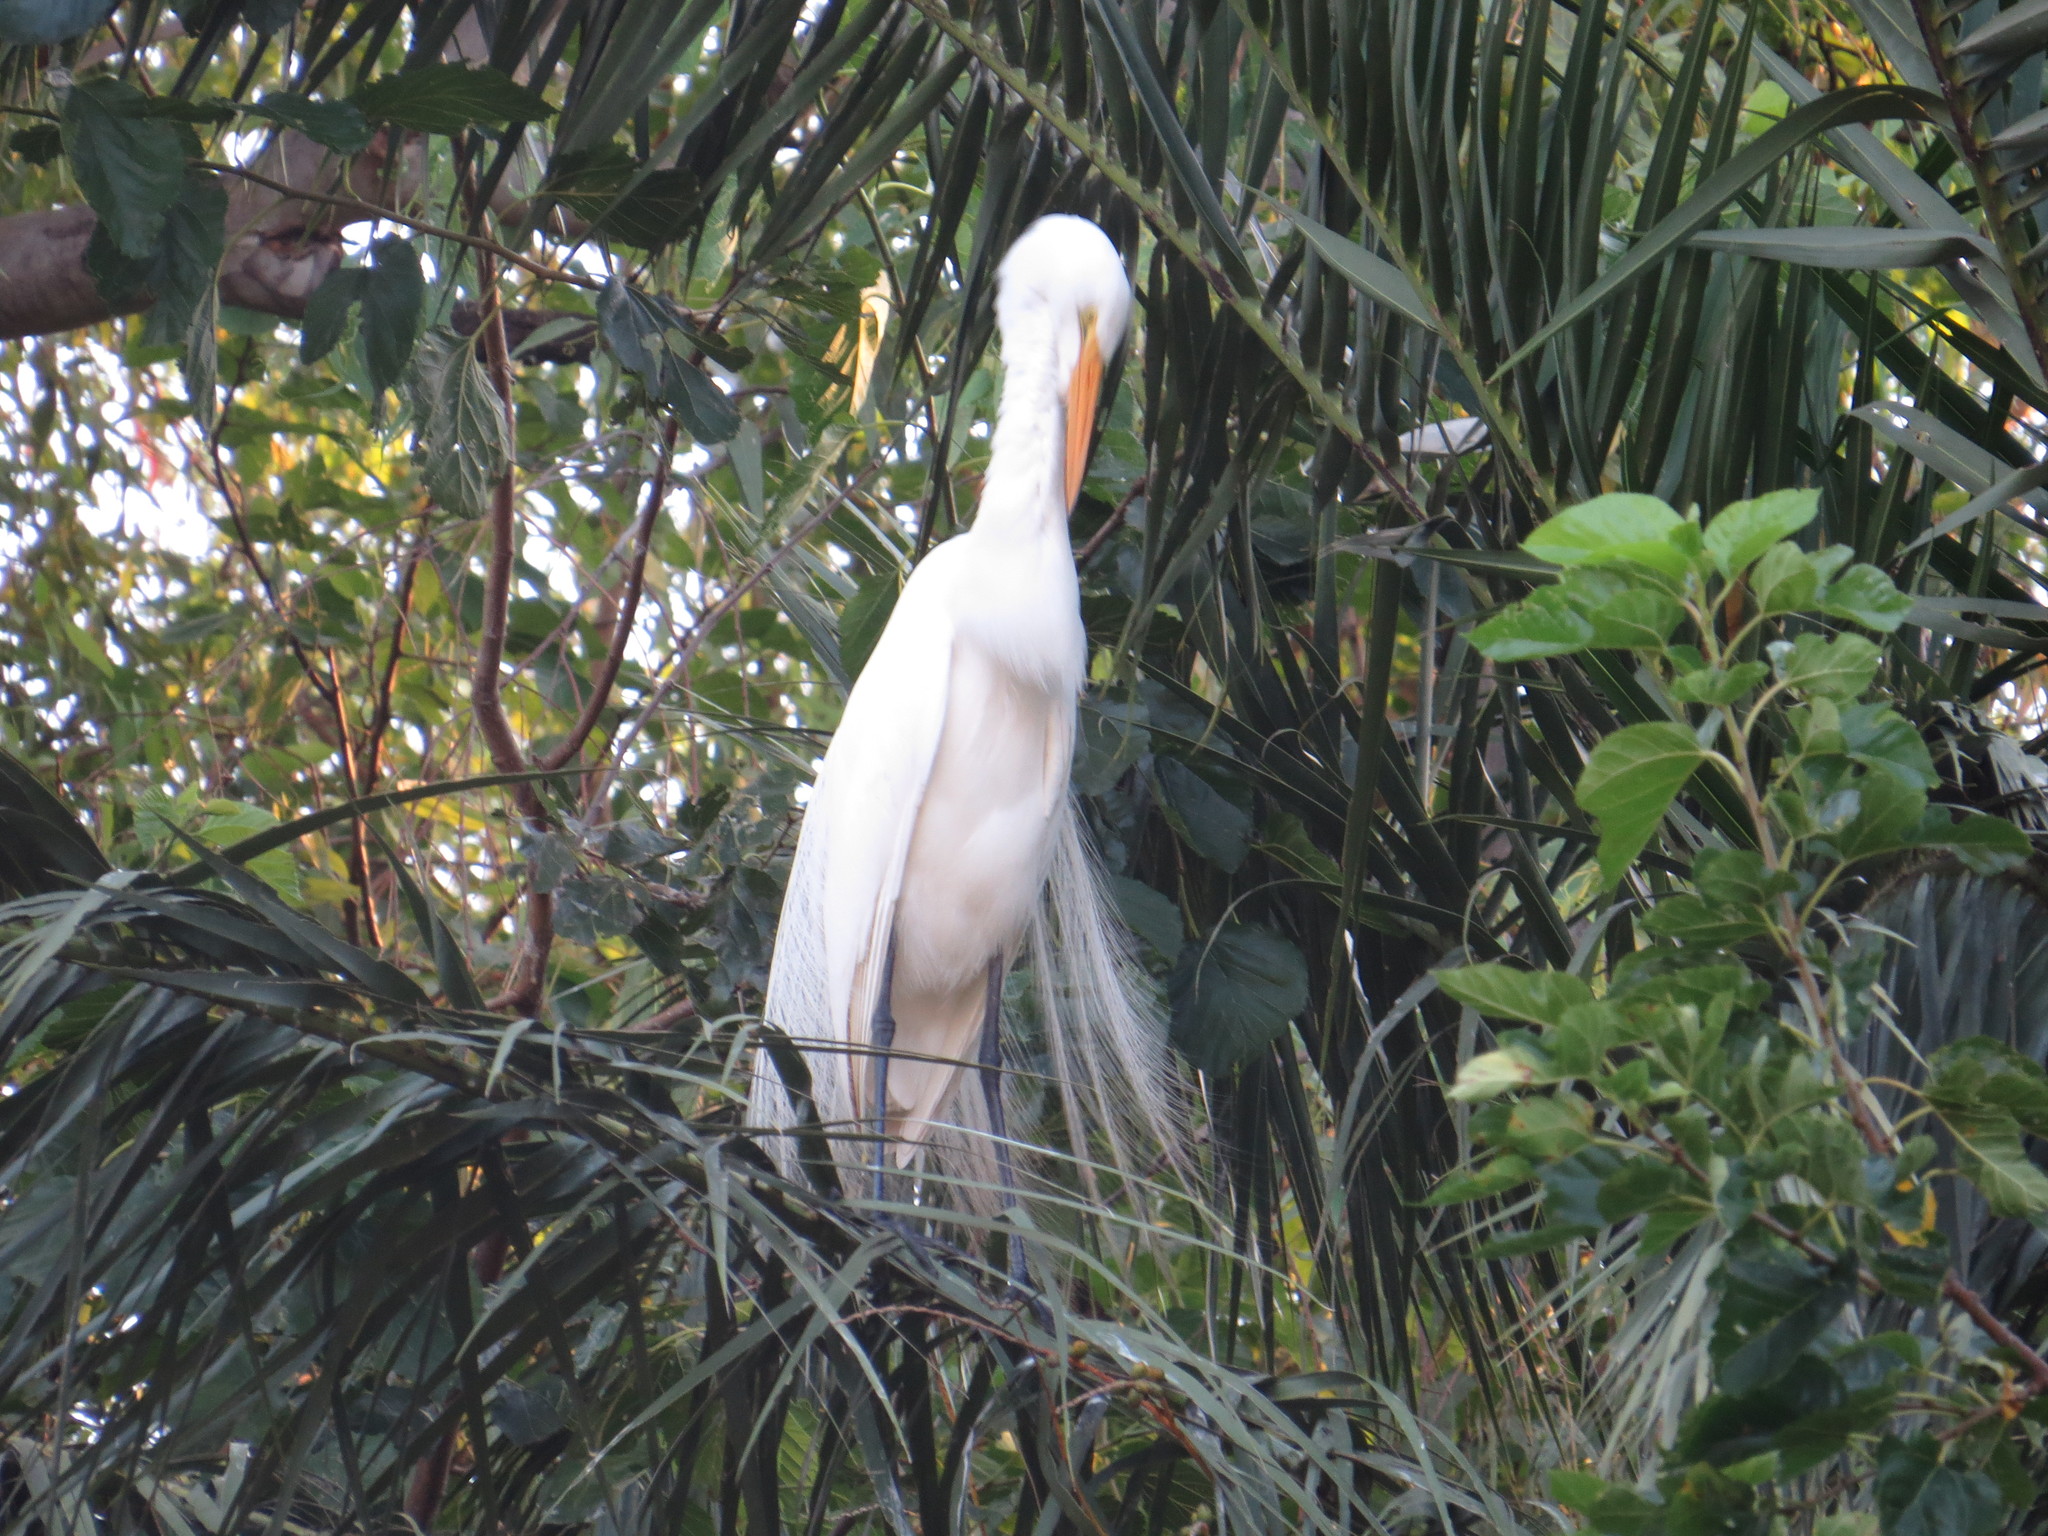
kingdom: Animalia
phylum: Chordata
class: Aves
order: Pelecaniformes
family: Ardeidae
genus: Ardea
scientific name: Ardea alba
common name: Great egret
